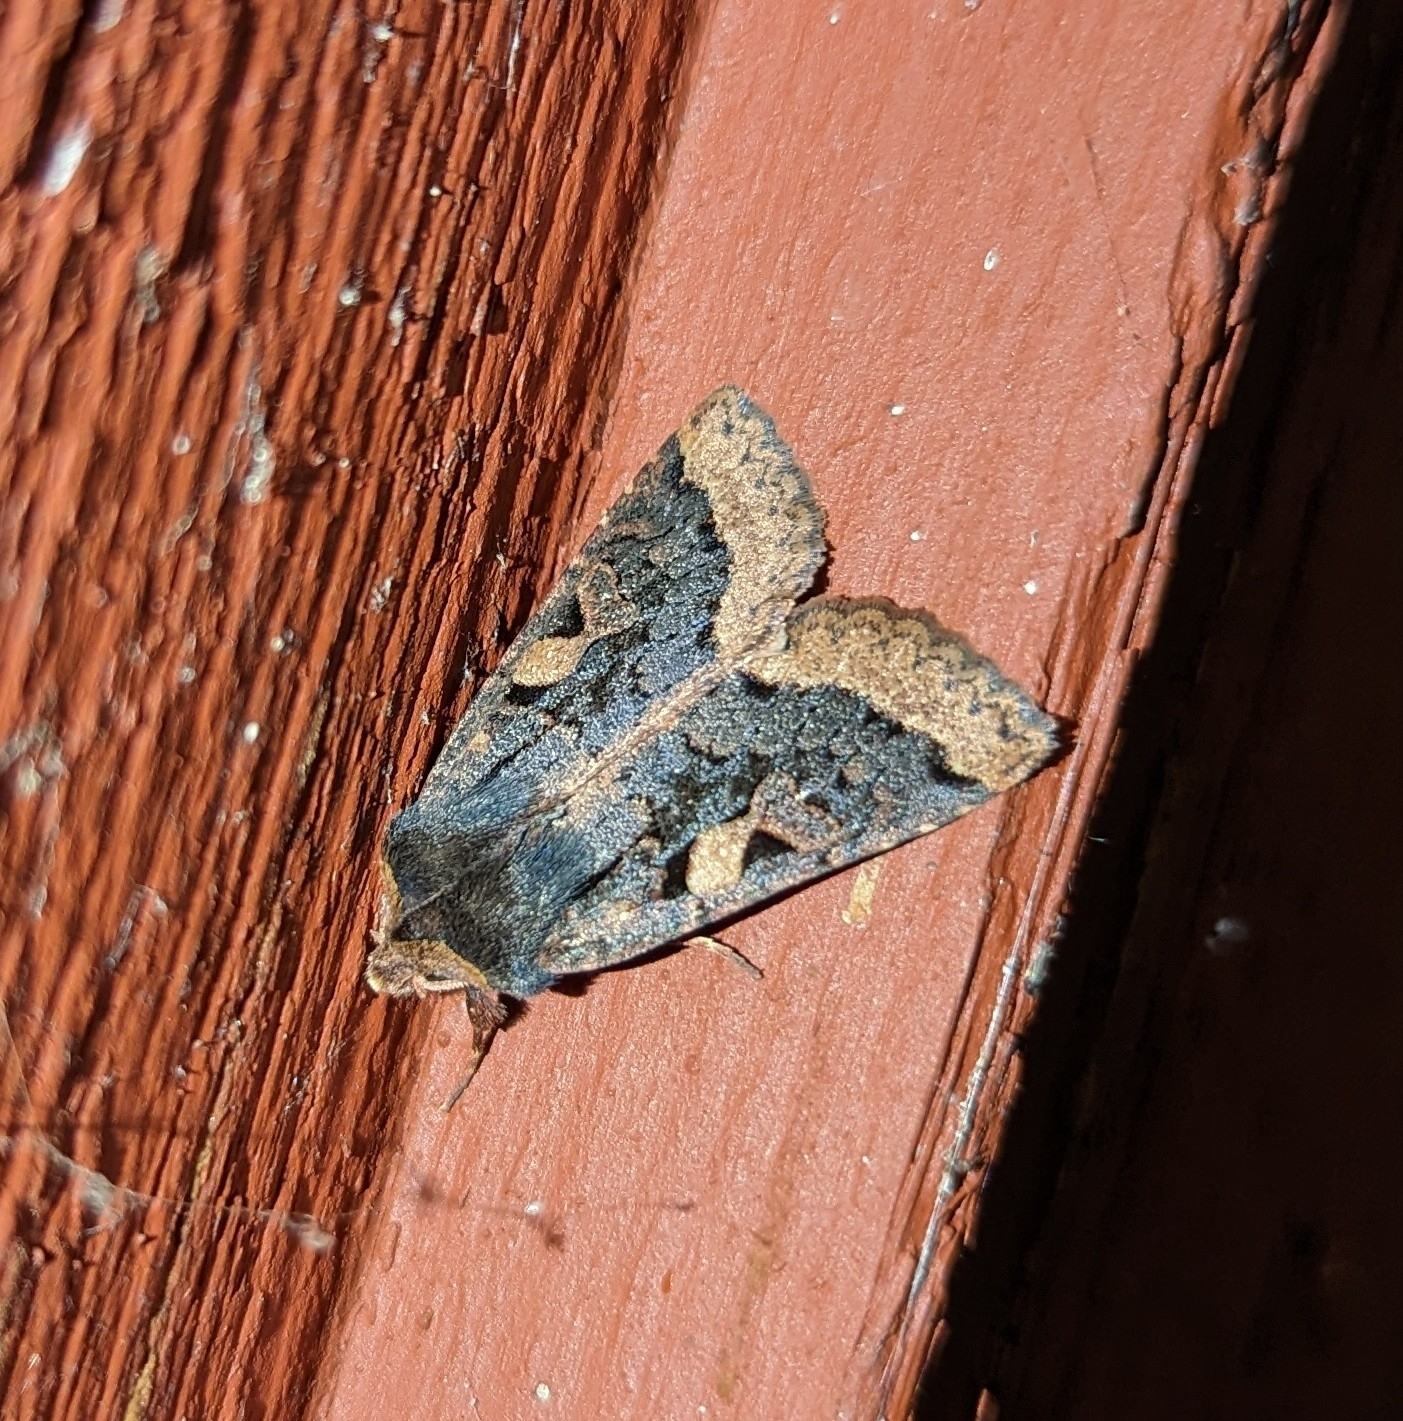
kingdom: Animalia
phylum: Arthropoda
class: Insecta
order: Lepidoptera
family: Noctuidae
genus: Orthosia
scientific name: Orthosia praeses
